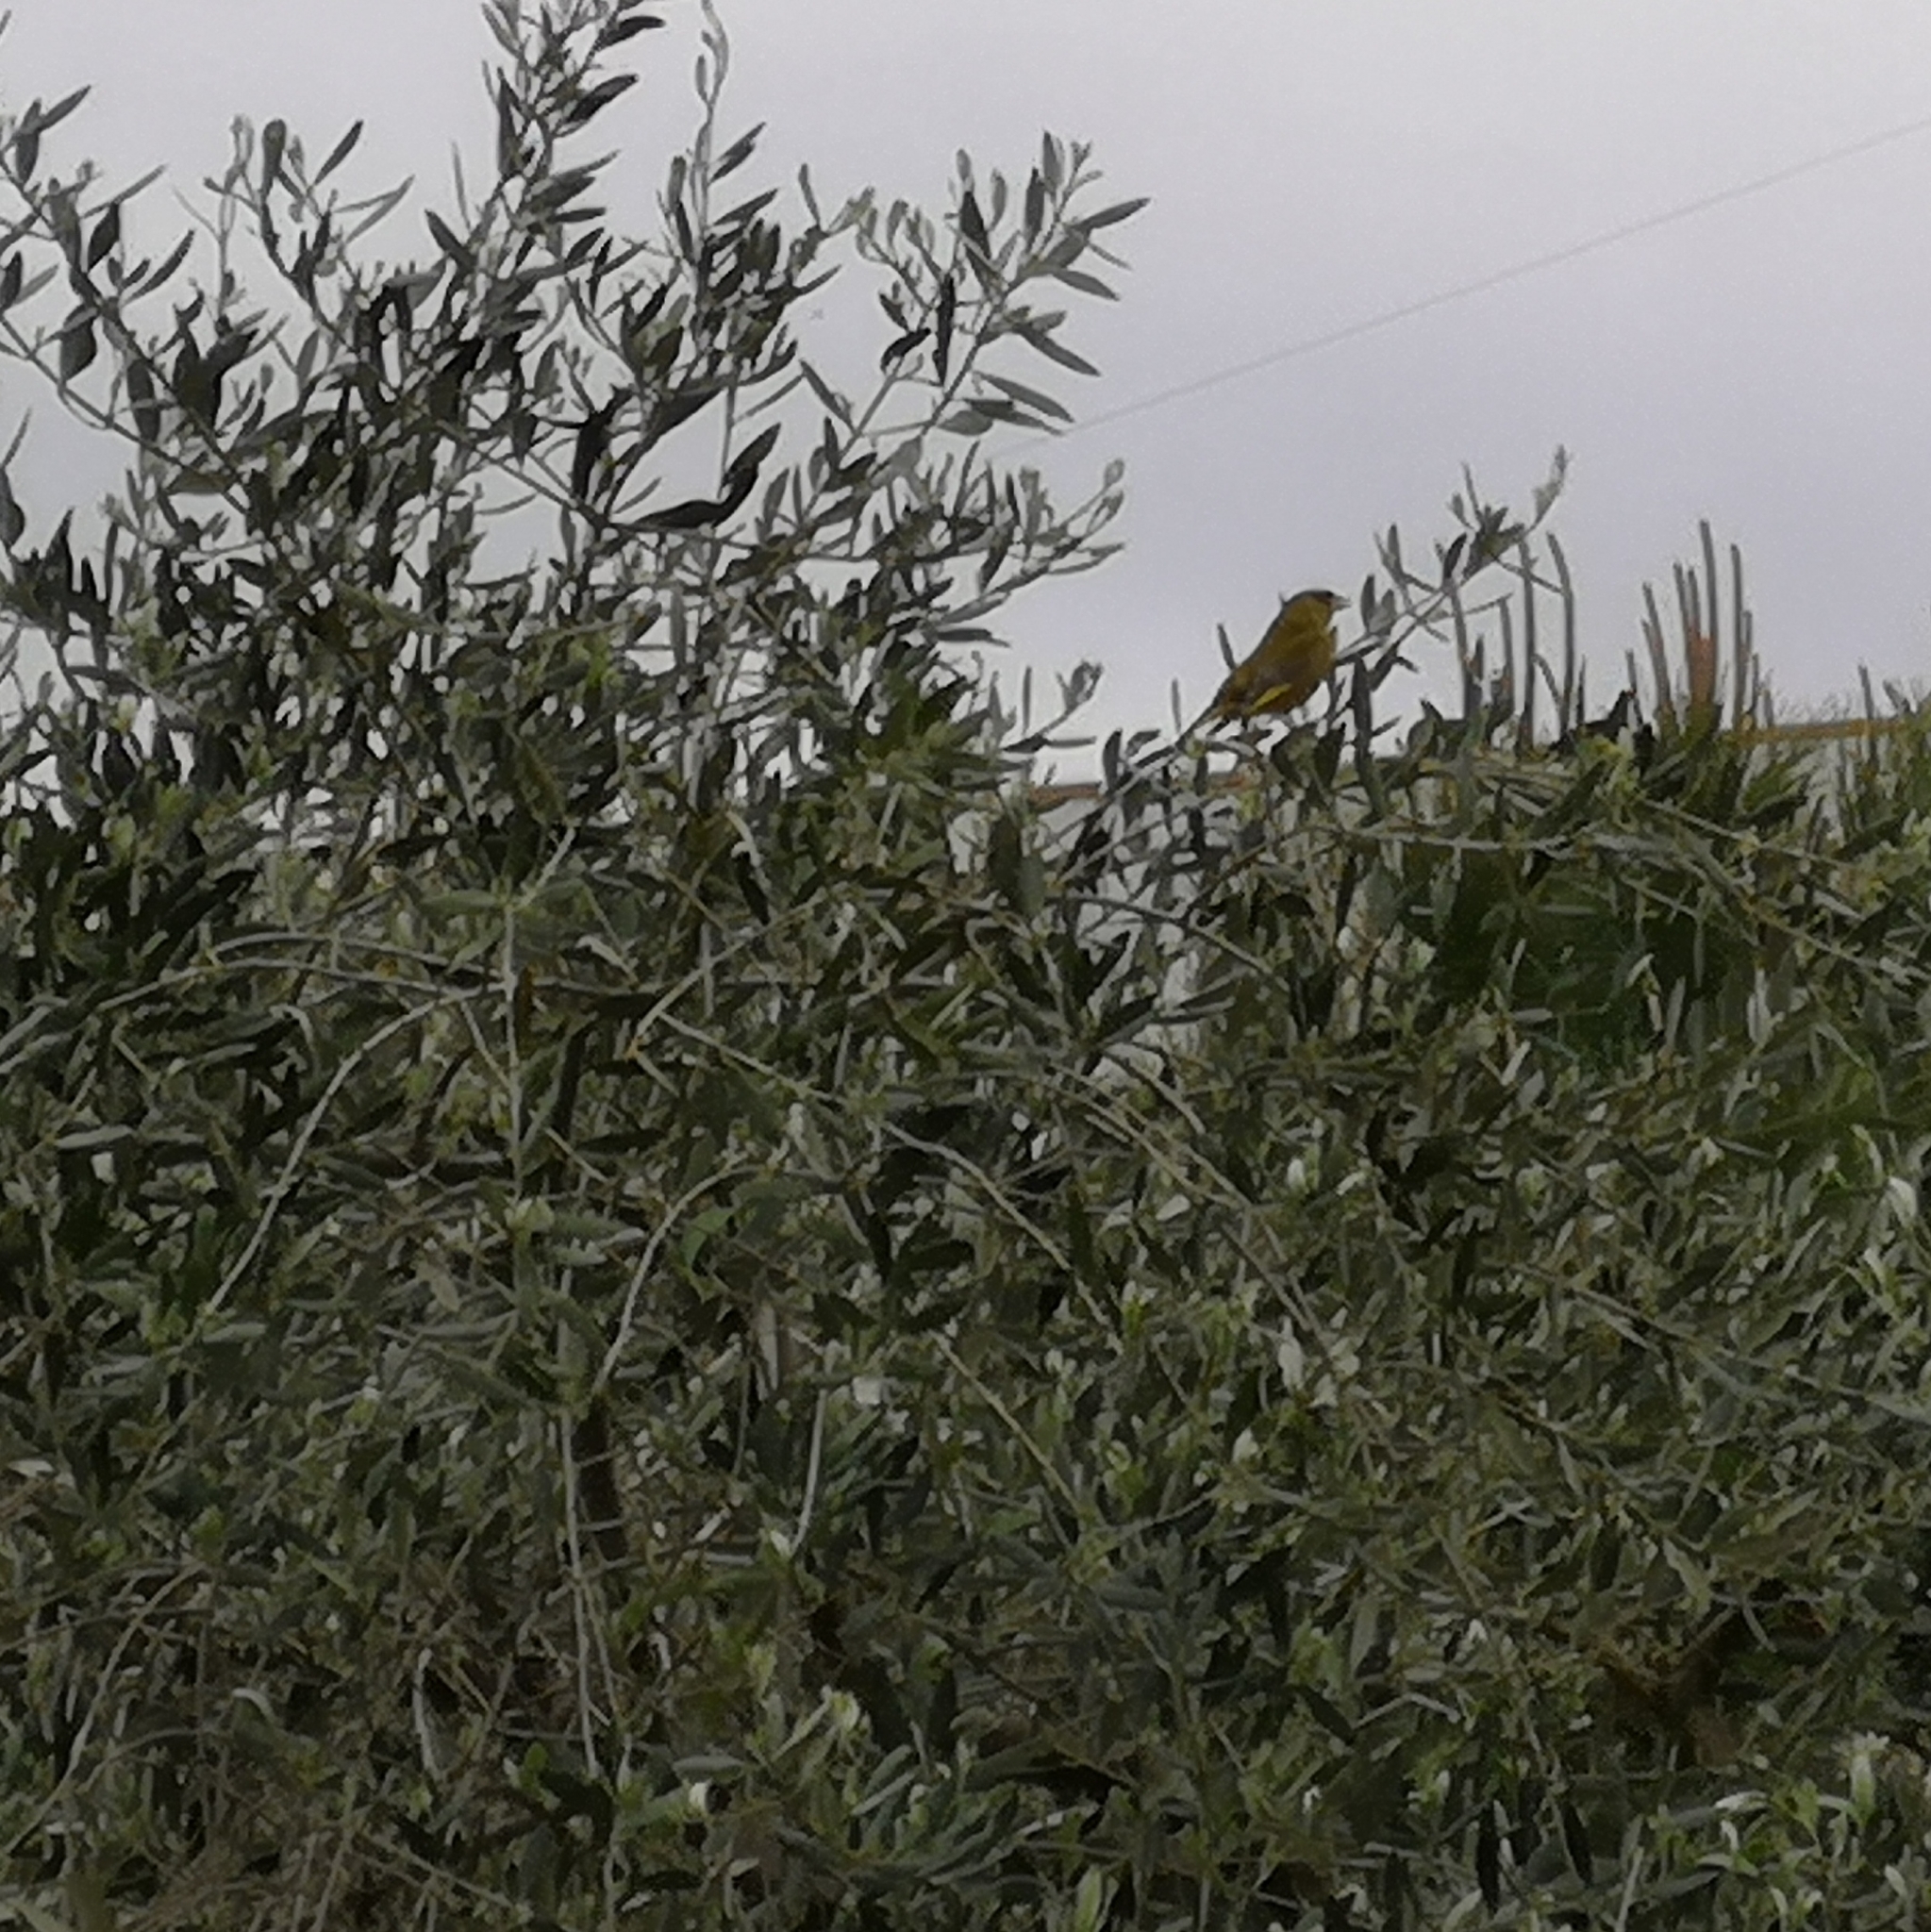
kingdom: Plantae
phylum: Tracheophyta
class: Liliopsida
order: Poales
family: Poaceae
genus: Chloris
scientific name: Chloris chloris
